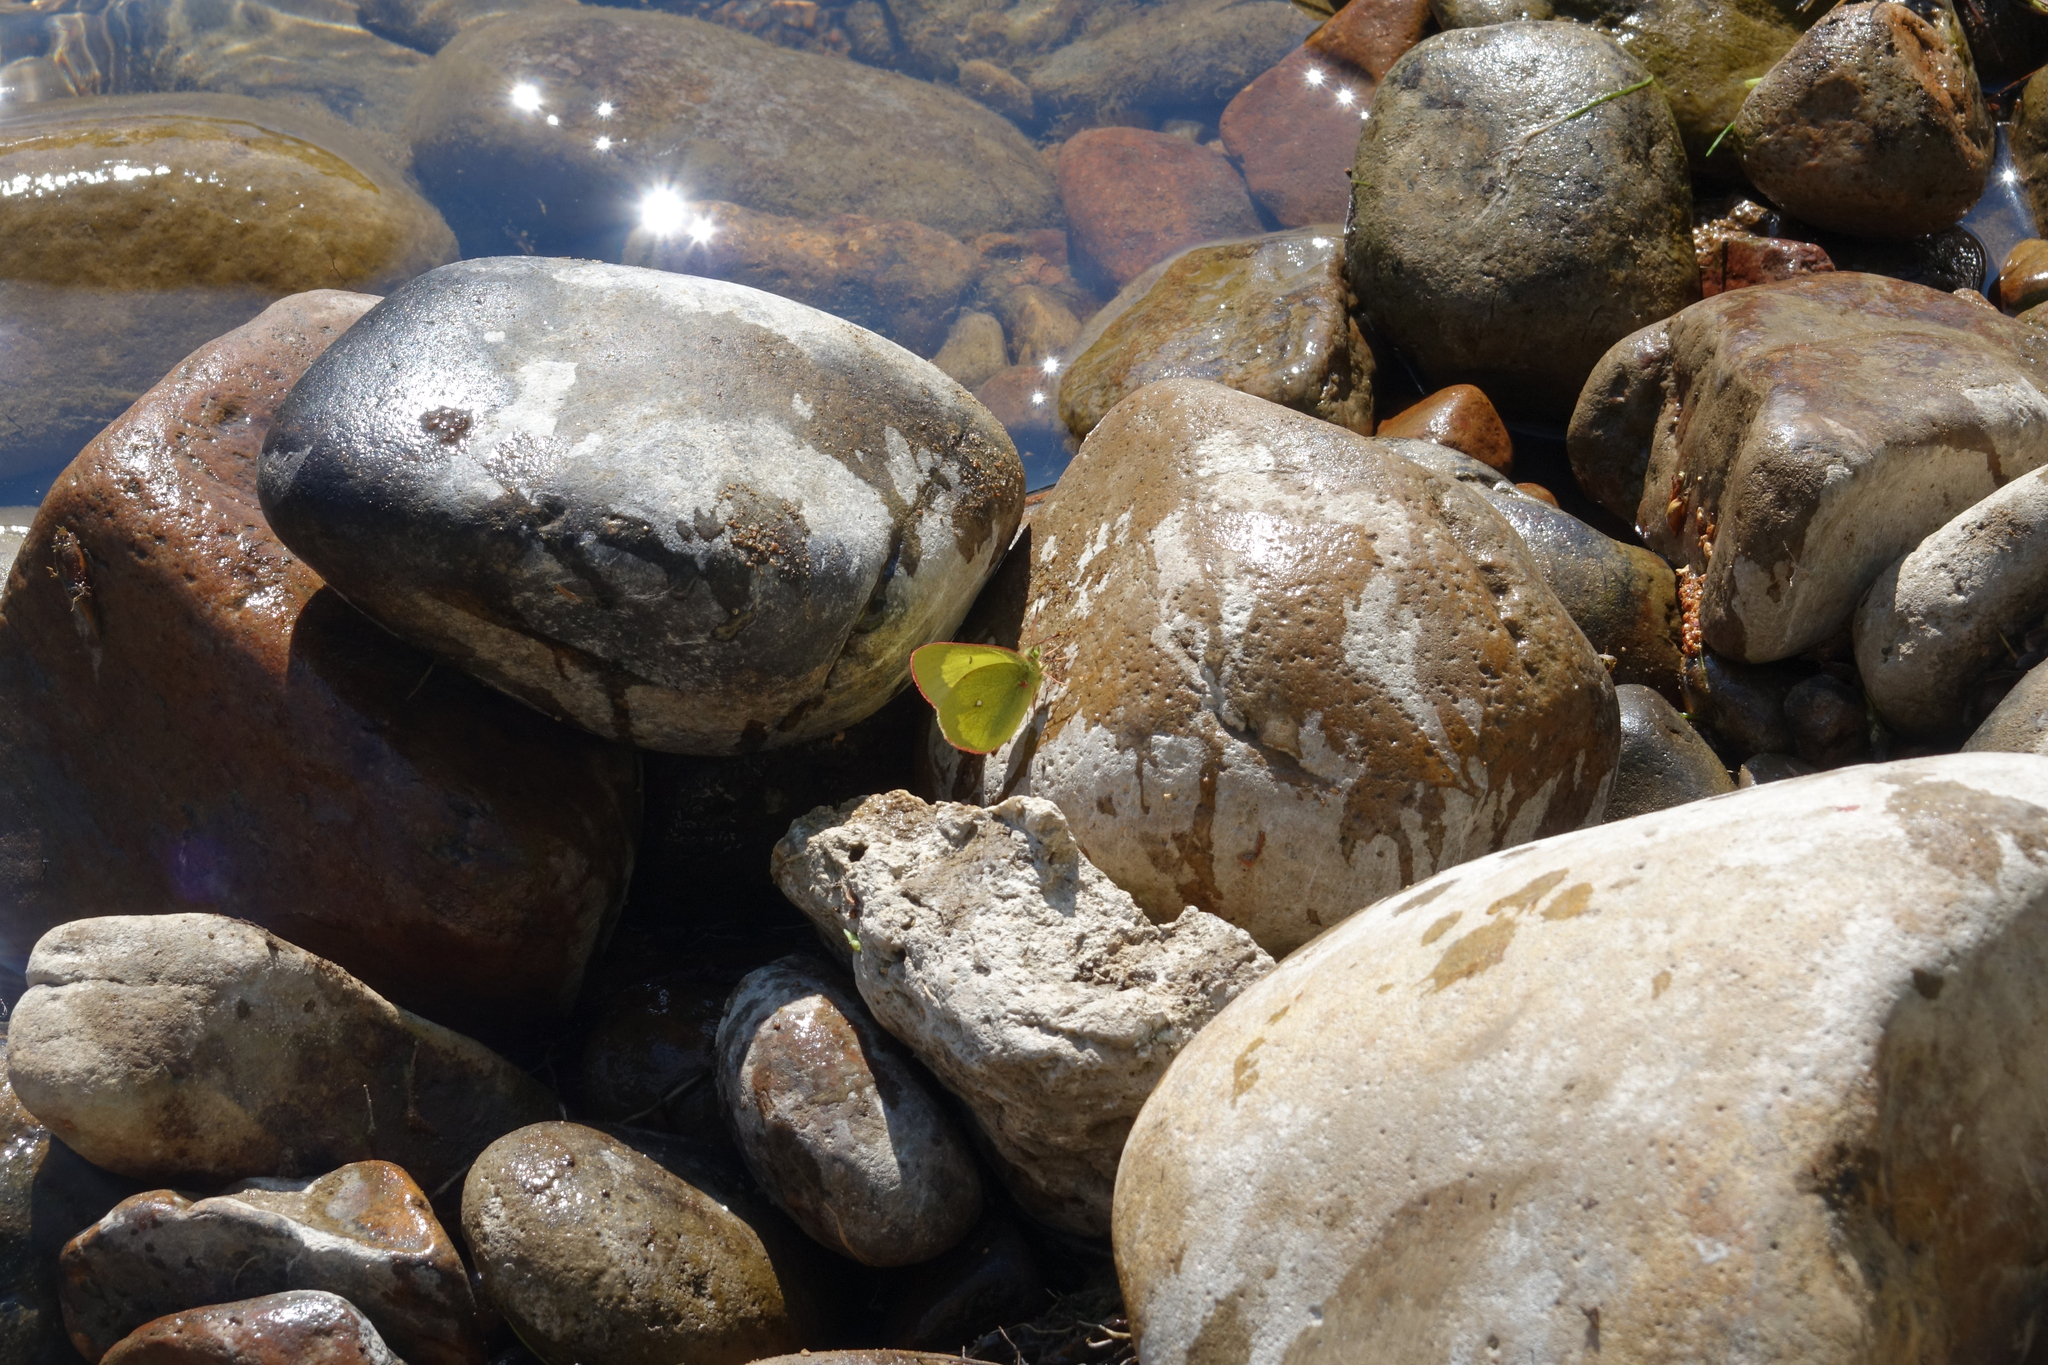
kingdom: Animalia
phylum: Arthropoda
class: Insecta
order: Lepidoptera
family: Pieridae
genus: Colias
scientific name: Colias palaeno
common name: Moorland clouded yellow
